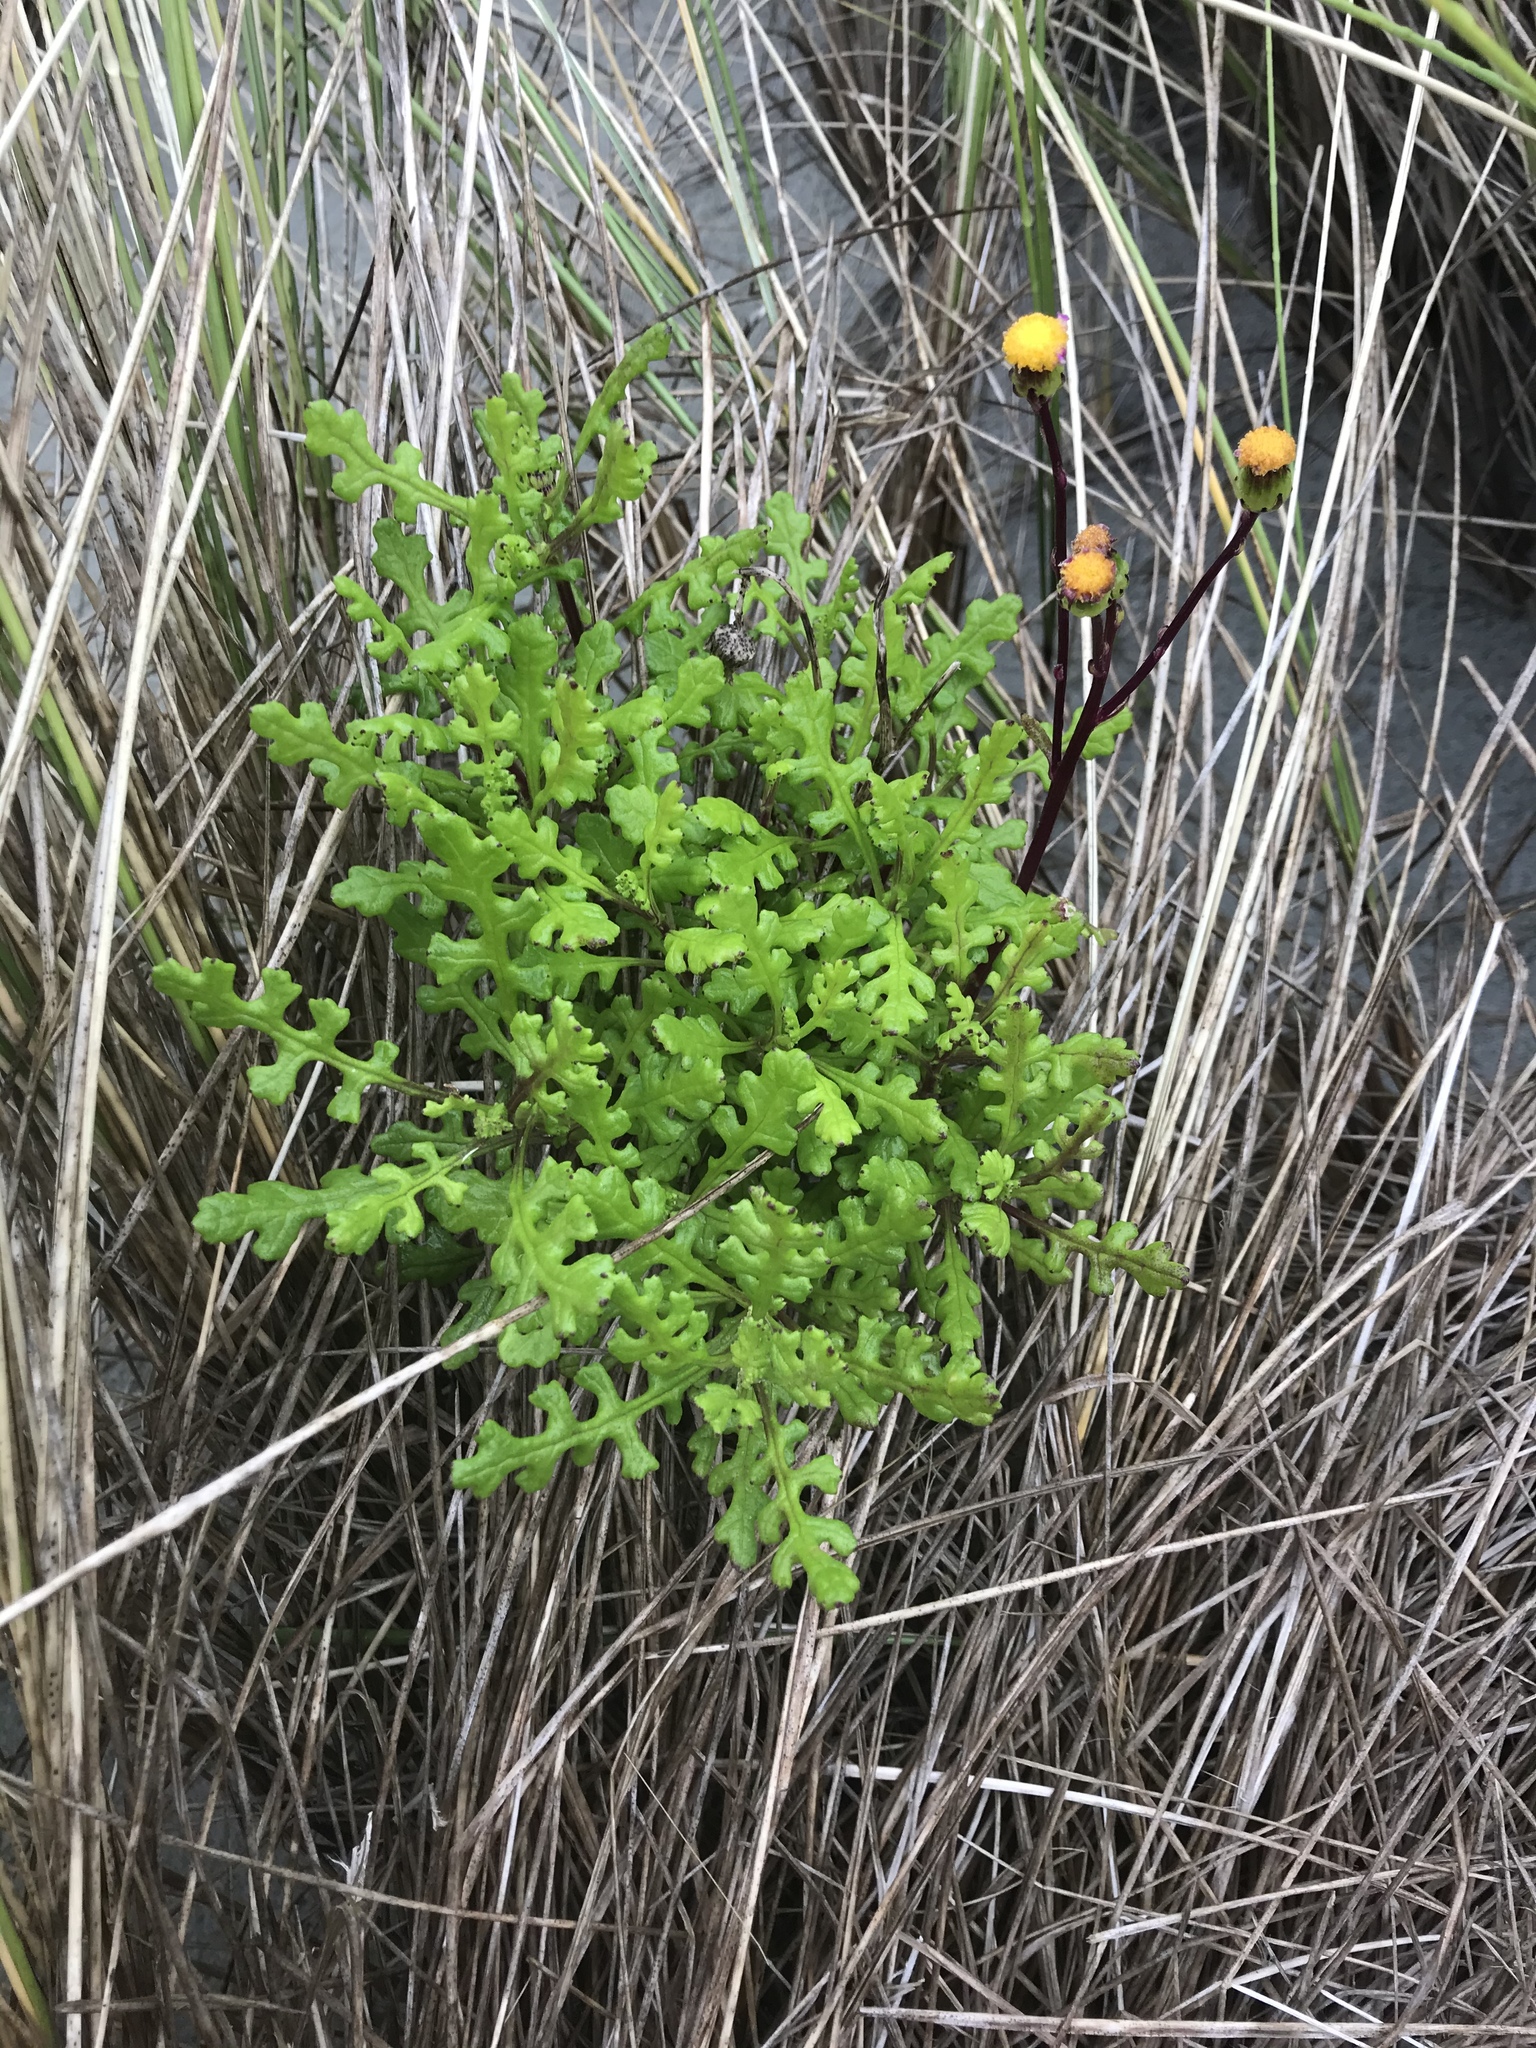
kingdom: Plantae
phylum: Tracheophyta
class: Magnoliopsida
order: Asterales
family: Asteraceae
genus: Senecio
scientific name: Senecio elegans
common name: Purple groundsel
